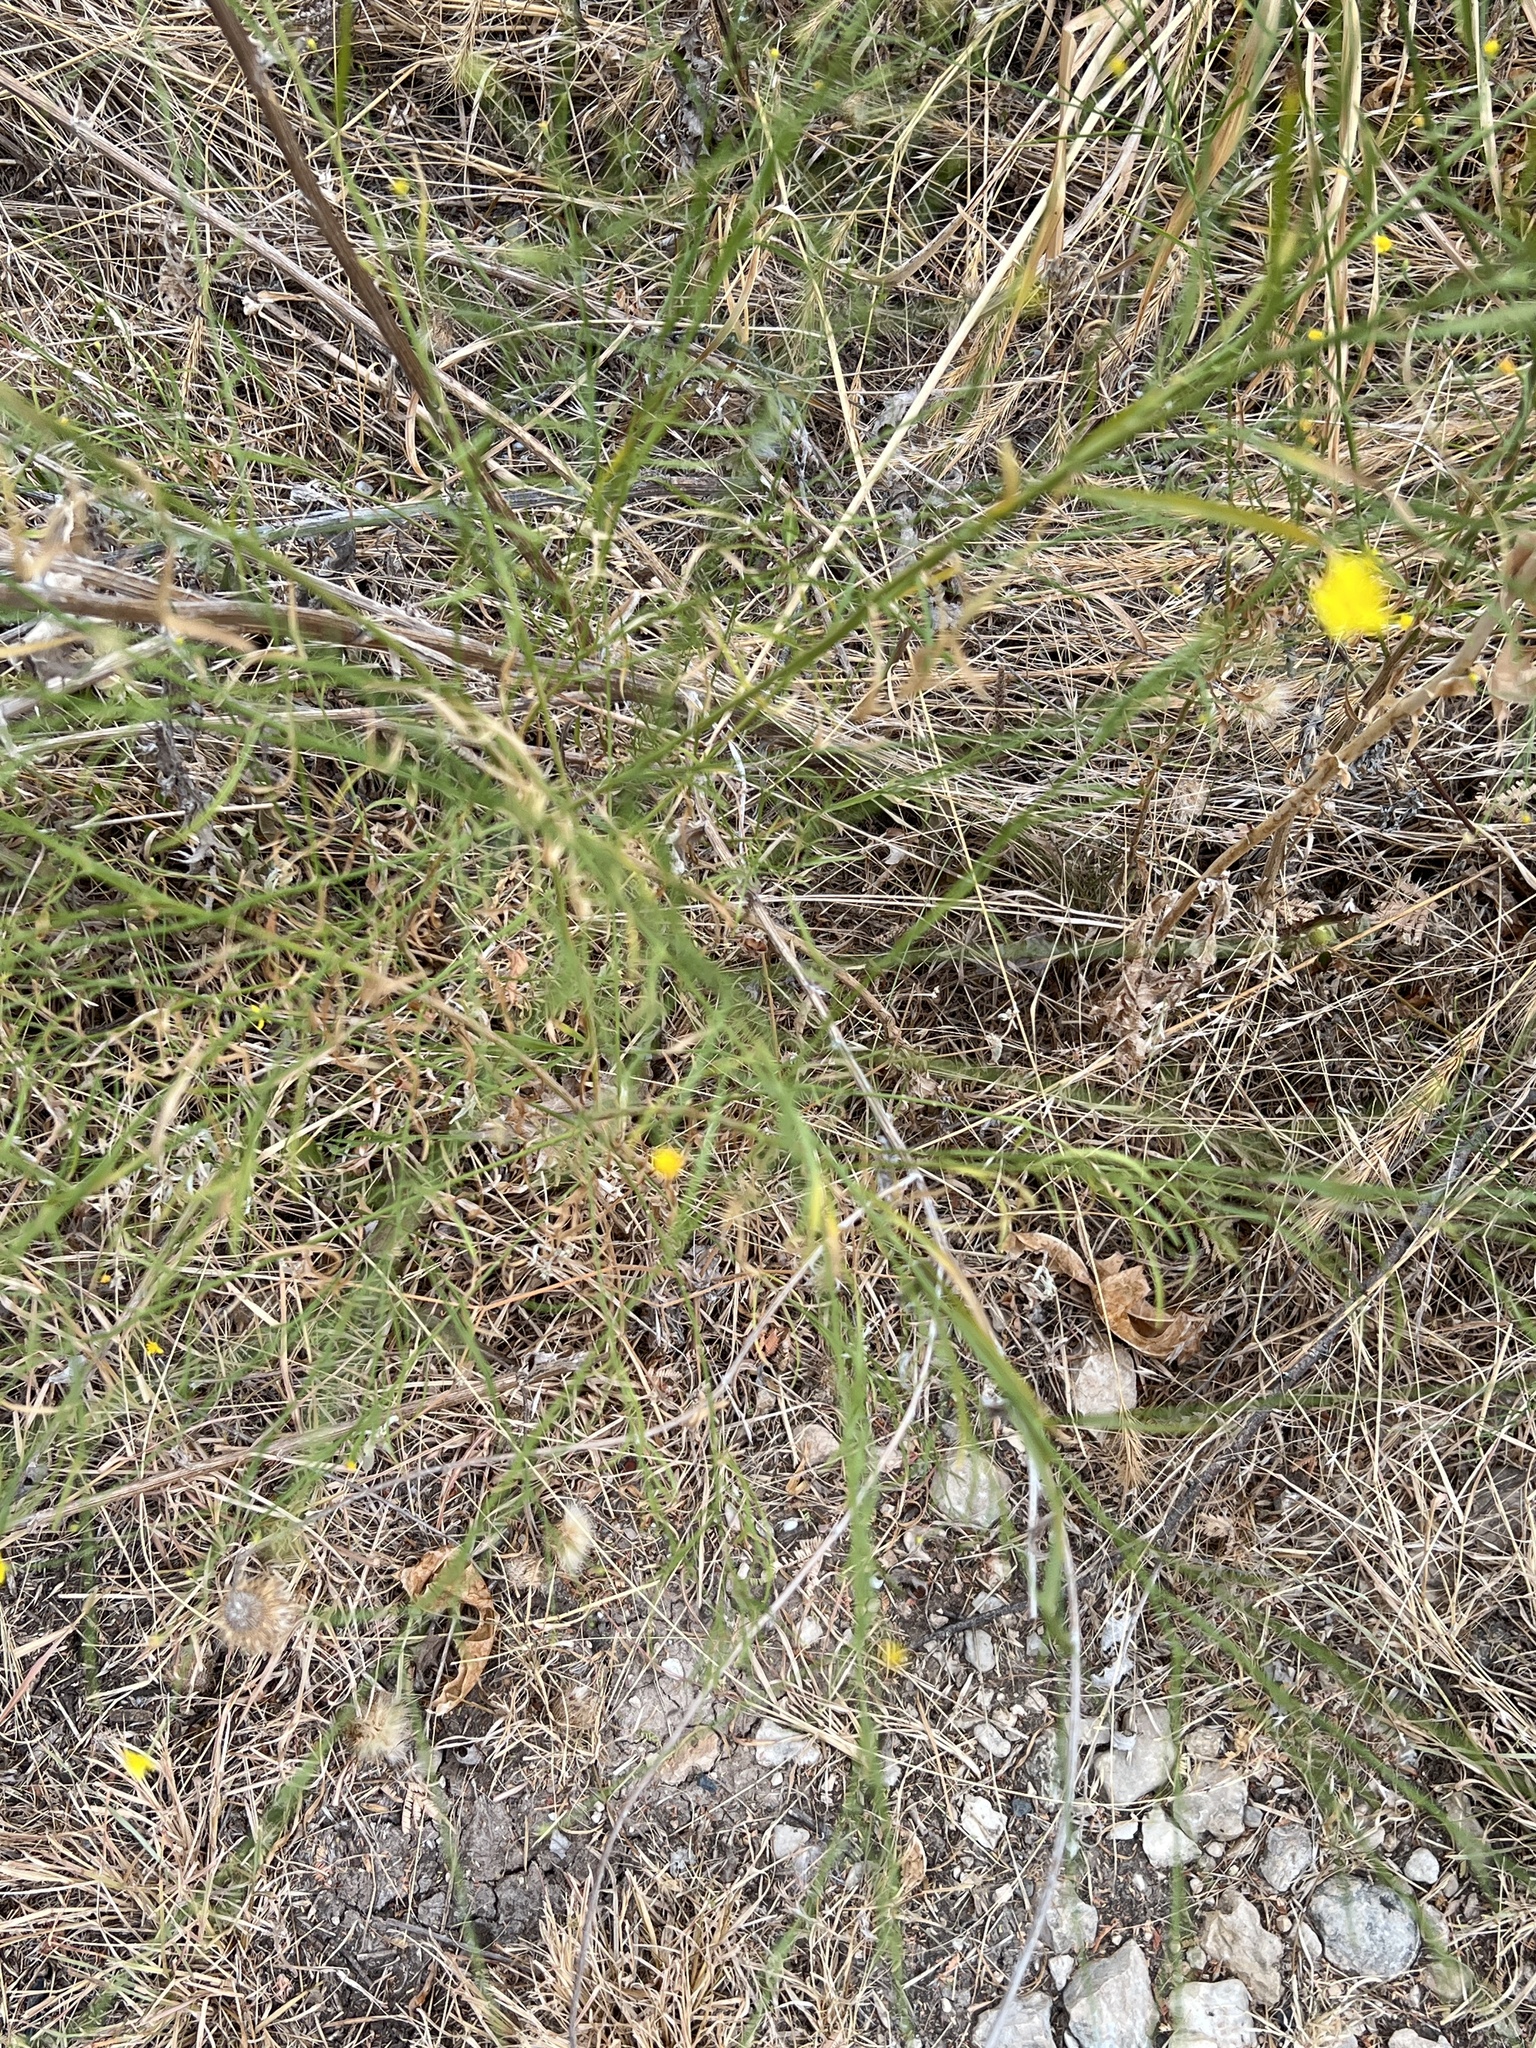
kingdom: Plantae
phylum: Tracheophyta
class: Magnoliopsida
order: Asterales
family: Asteraceae
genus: Gutierrezia
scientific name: Gutierrezia texana
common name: Texas snakeweed
